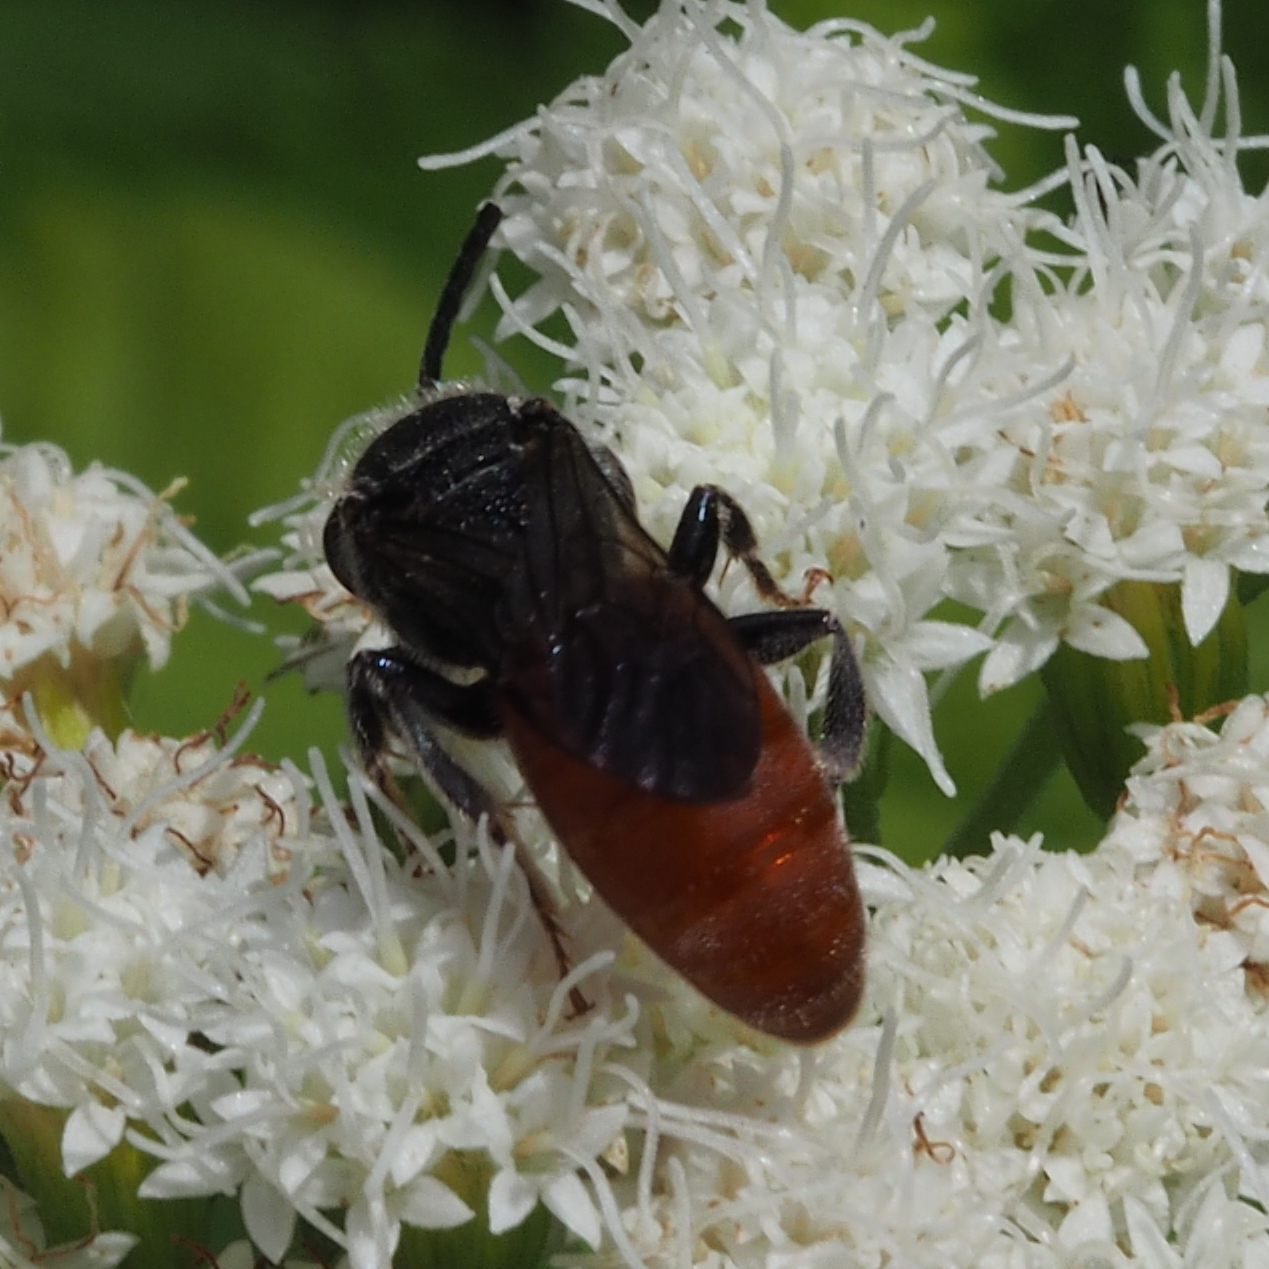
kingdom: Animalia
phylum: Arthropoda
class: Insecta
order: Hymenoptera
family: Halictidae
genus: Sphecodes
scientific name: Sphecodes
